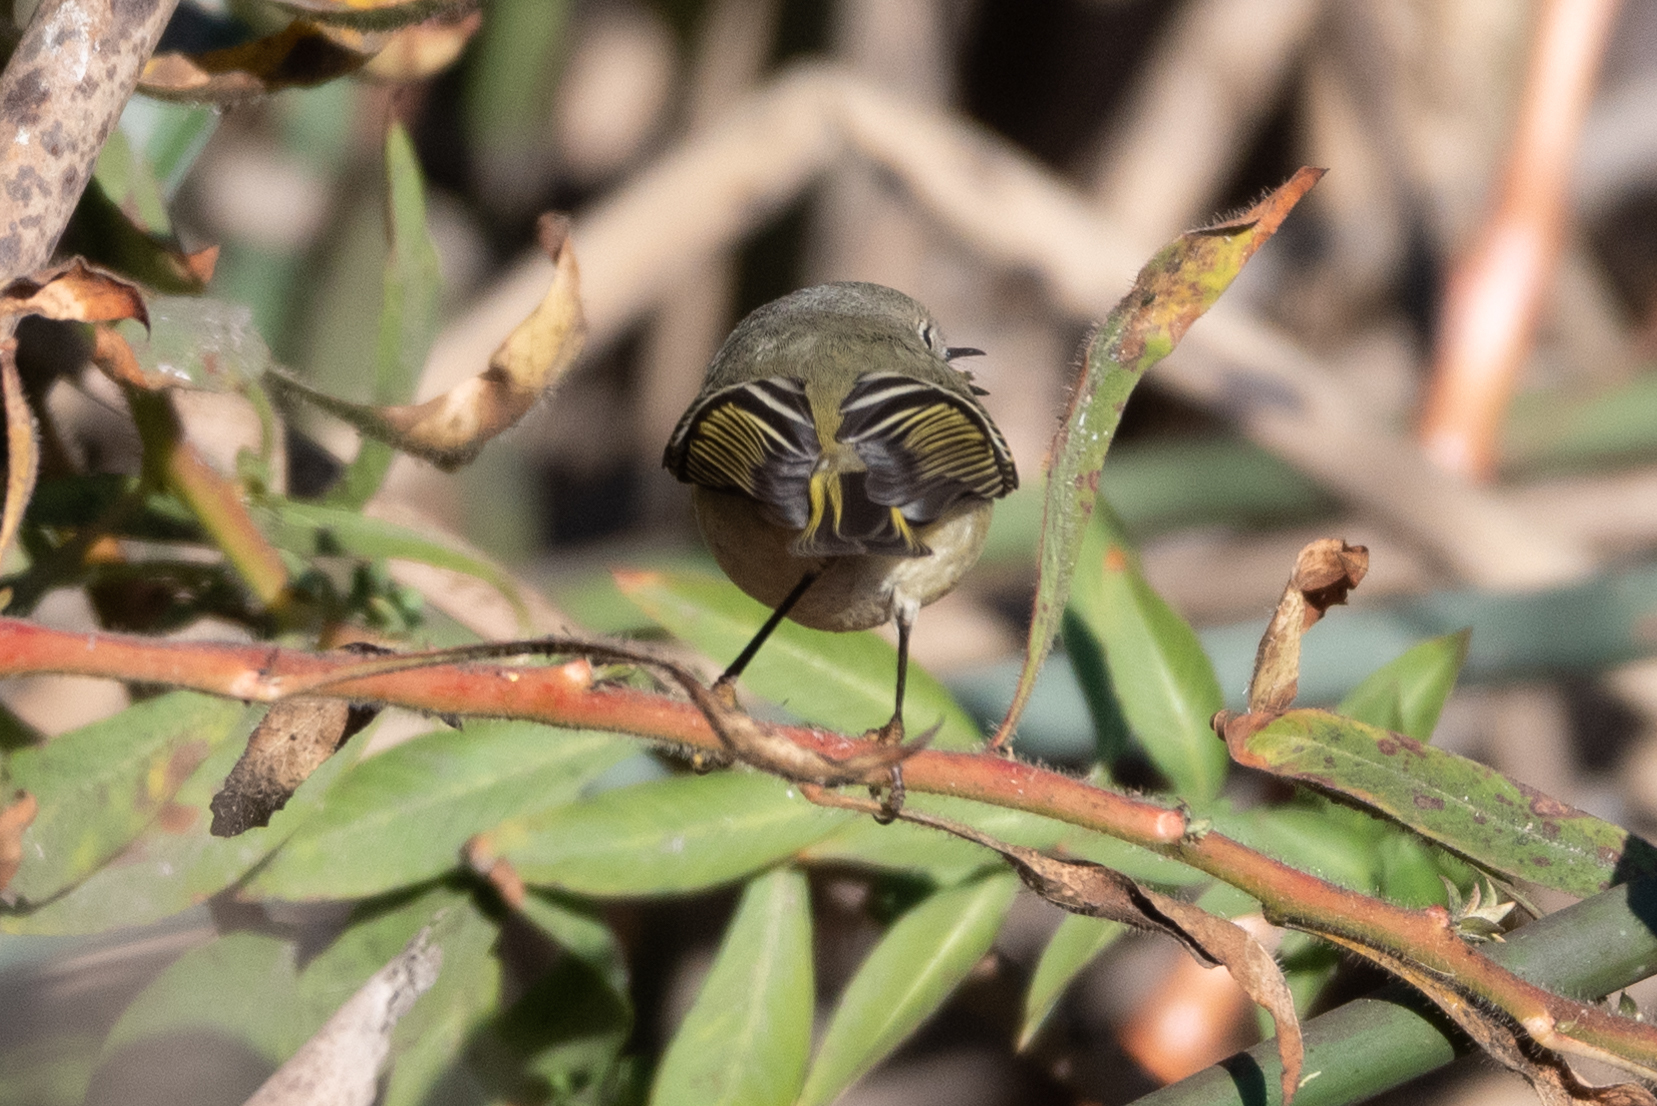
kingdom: Animalia
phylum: Chordata
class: Aves
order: Passeriformes
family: Regulidae
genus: Regulus
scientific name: Regulus calendula
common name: Ruby-crowned kinglet
